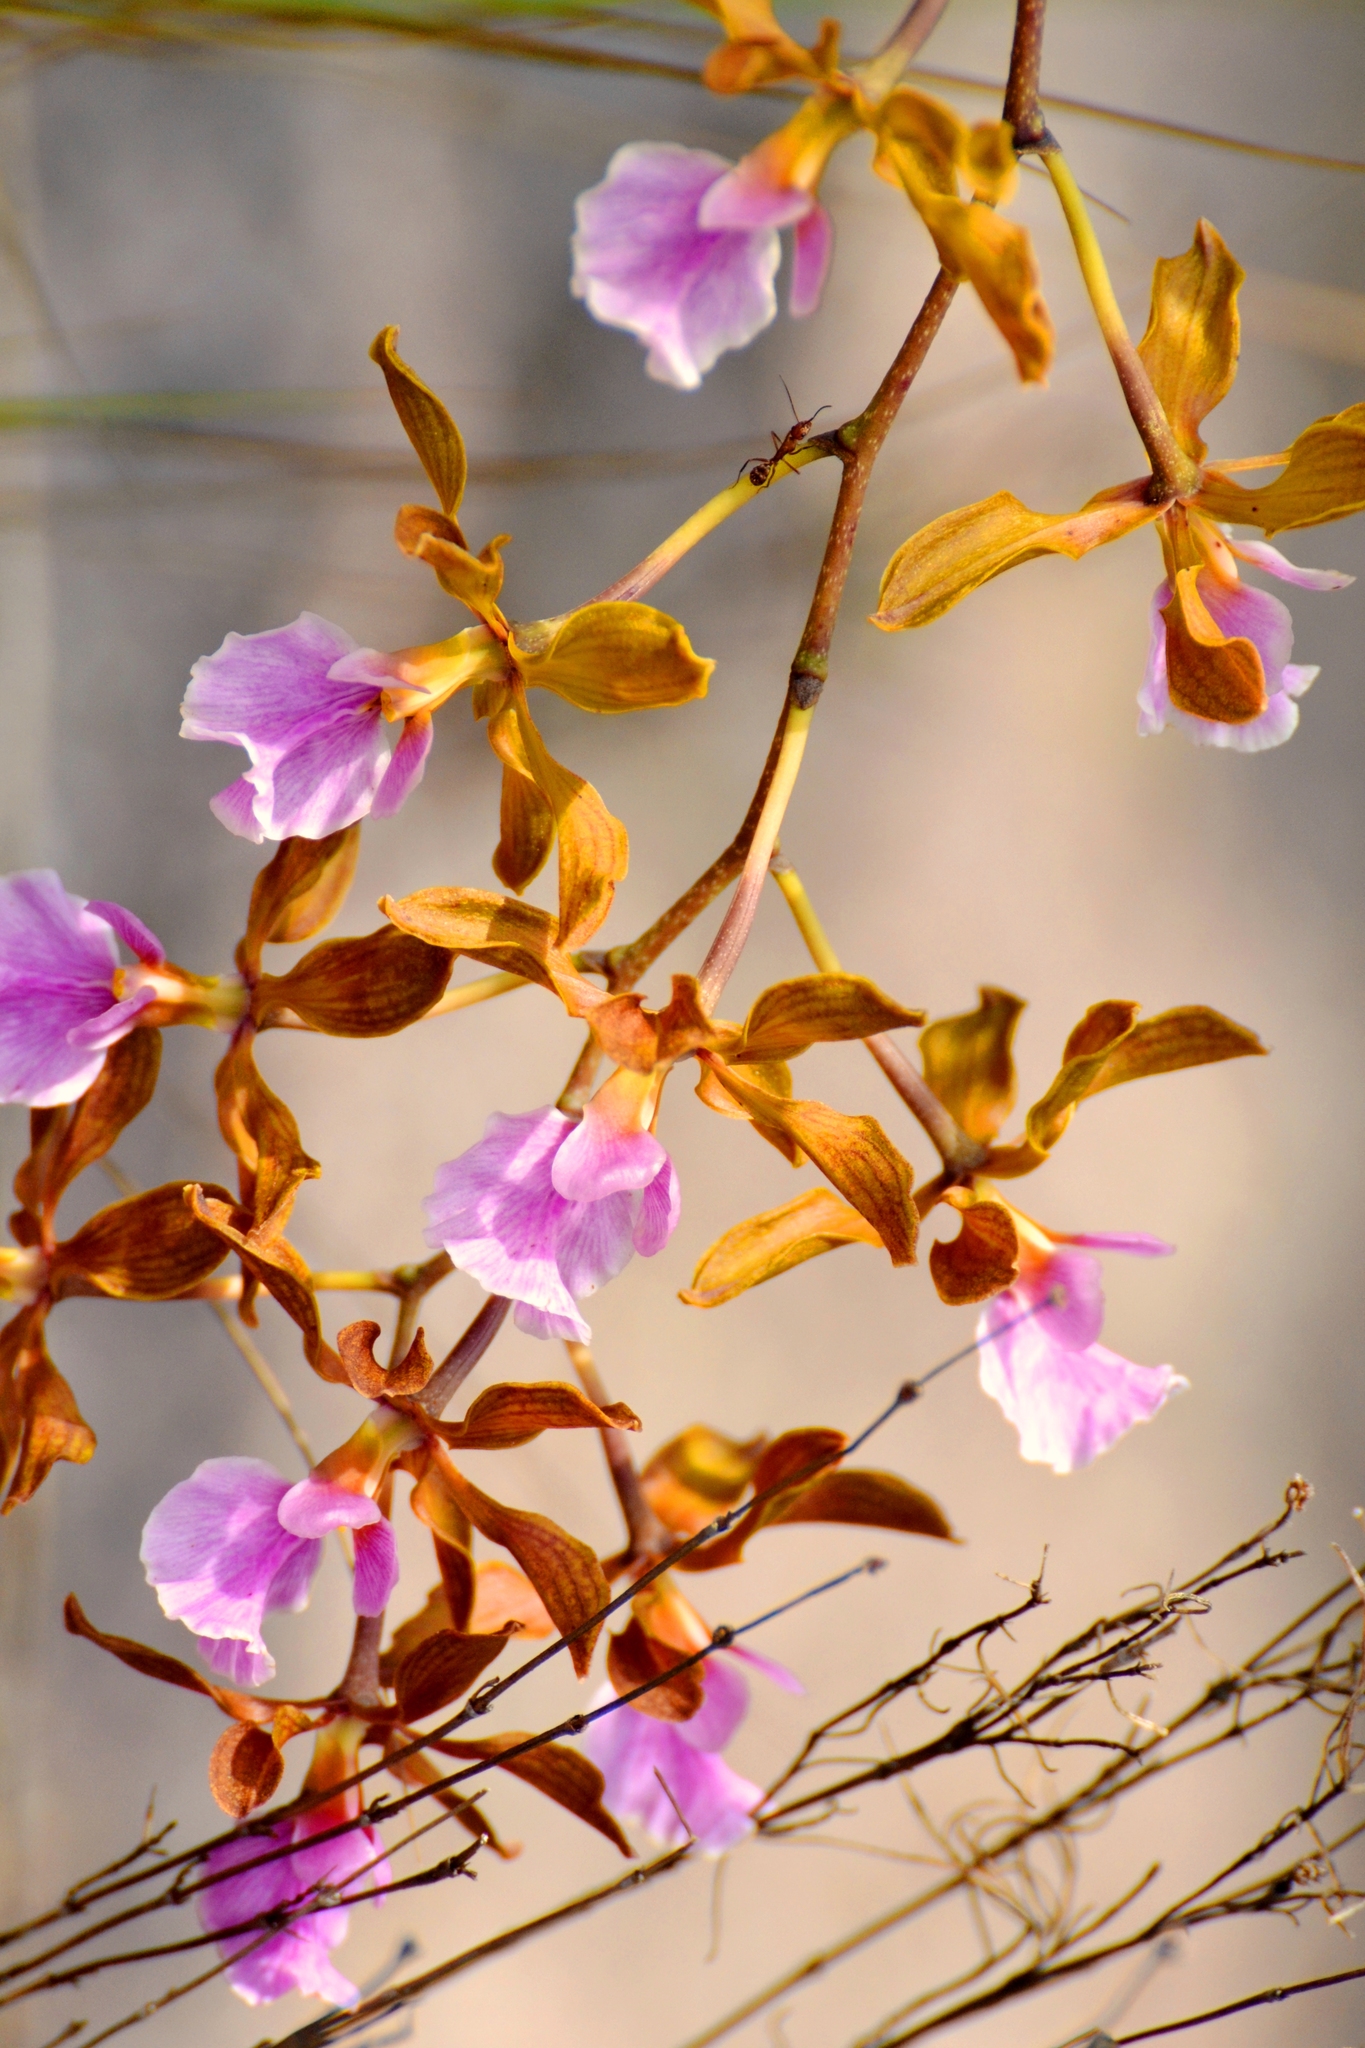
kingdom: Plantae
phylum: Tracheophyta
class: Liliopsida
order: Asparagales
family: Orchidaceae
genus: Encyclia
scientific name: Encyclia hanburyi
